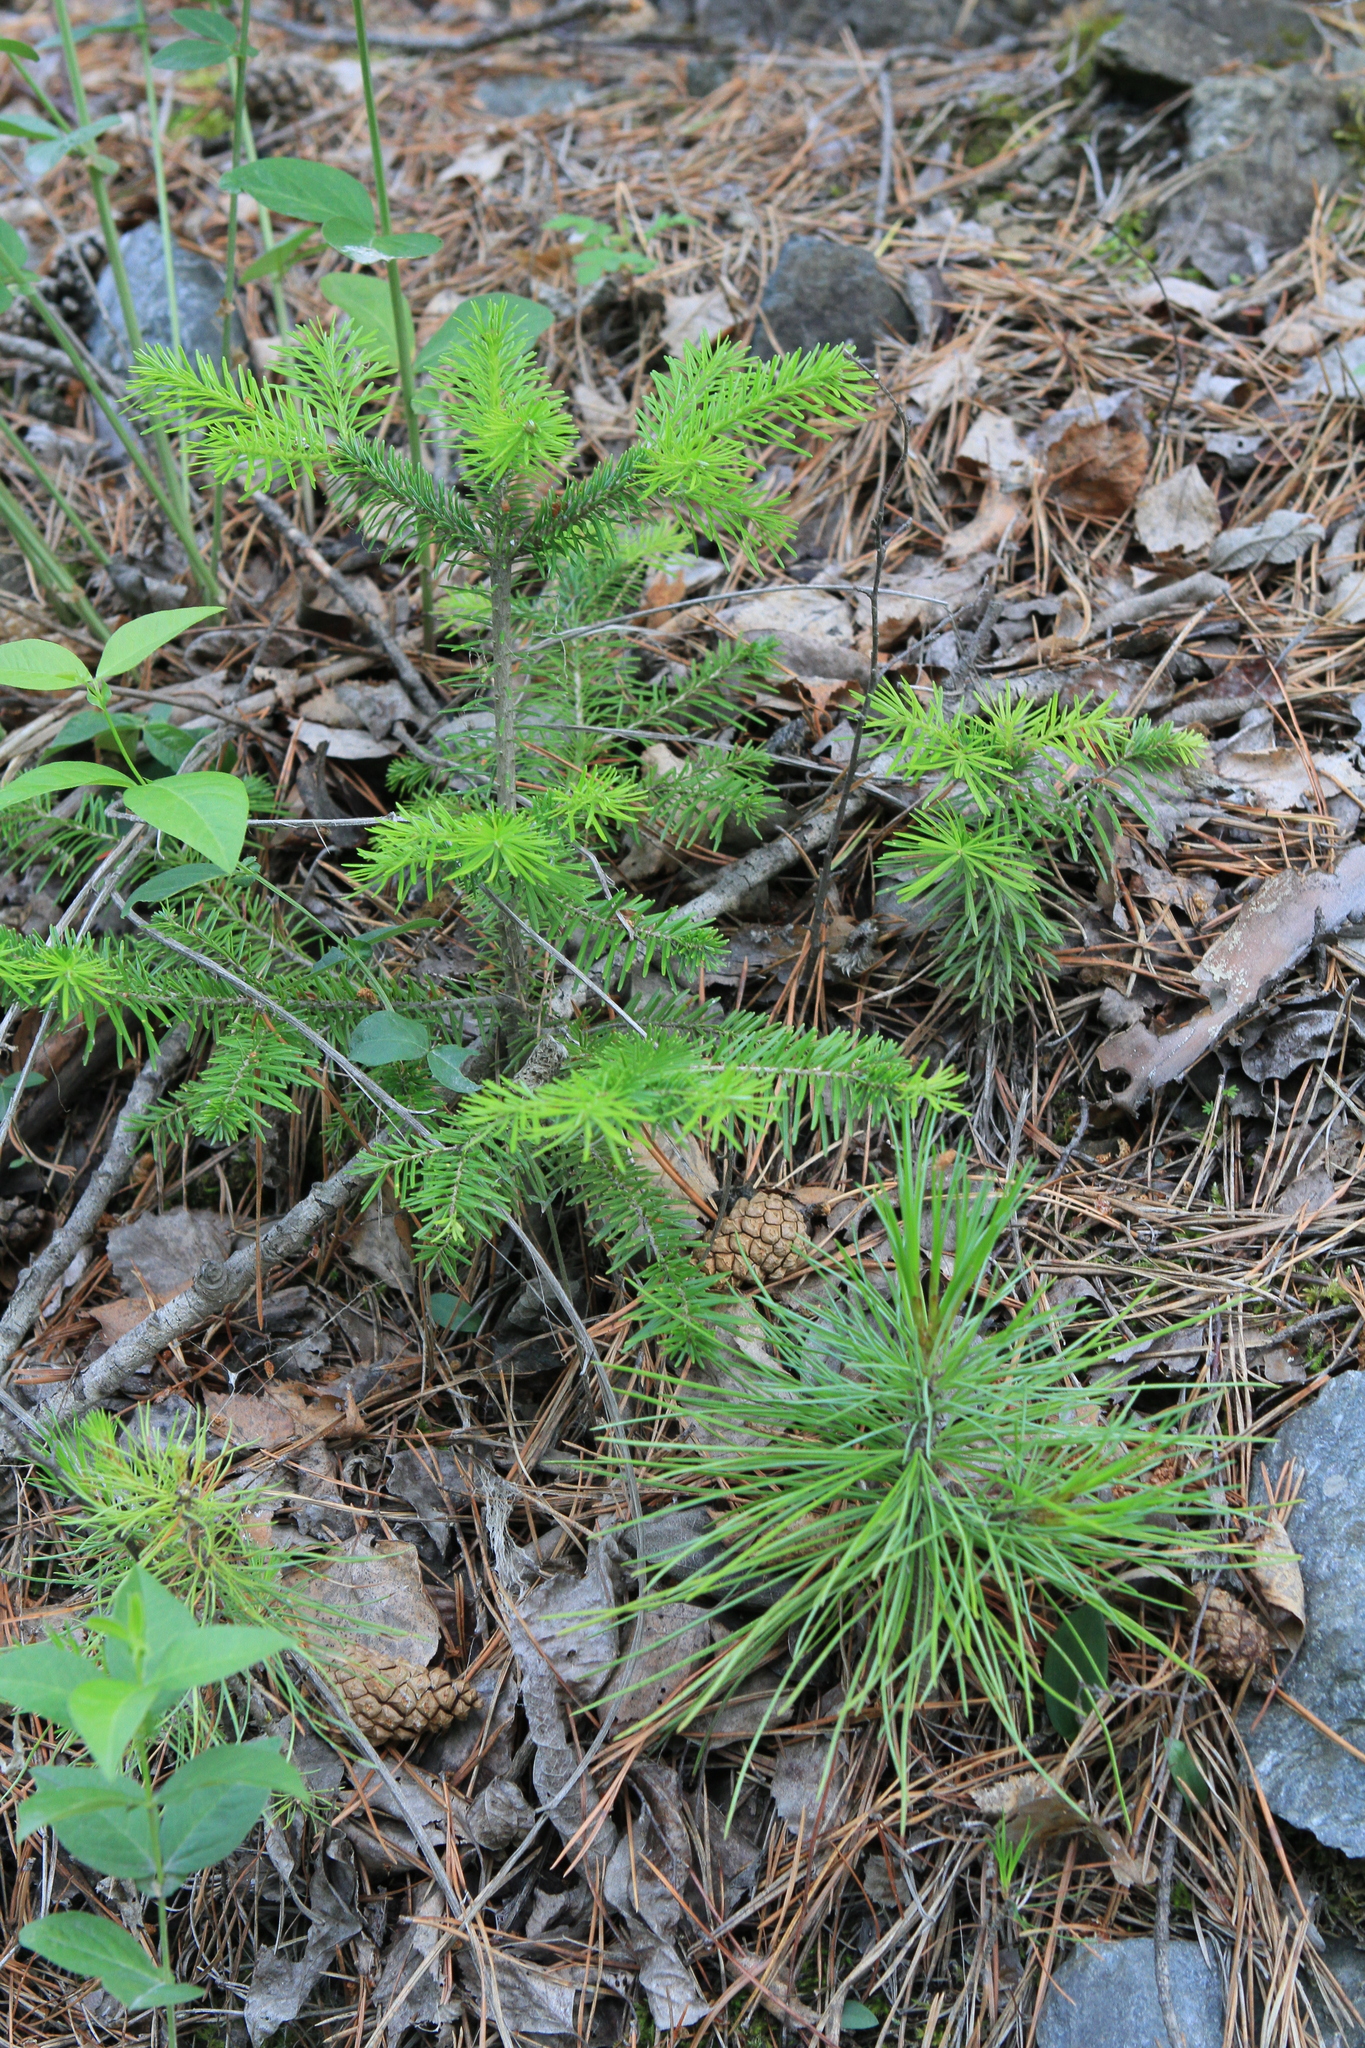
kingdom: Plantae
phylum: Tracheophyta
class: Pinopsida
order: Pinales
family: Pinaceae
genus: Abies
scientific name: Abies sibirica
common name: Siberian fir
